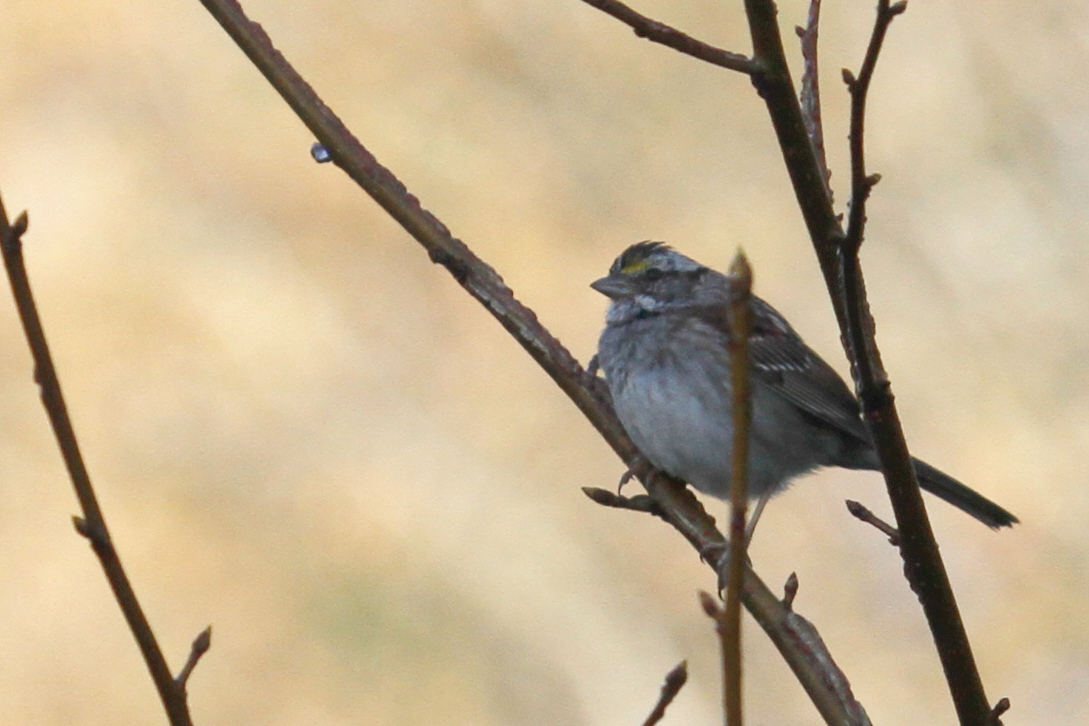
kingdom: Animalia
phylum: Chordata
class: Aves
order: Passeriformes
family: Passerellidae
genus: Zonotrichia
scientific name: Zonotrichia albicollis
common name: White-throated sparrow
